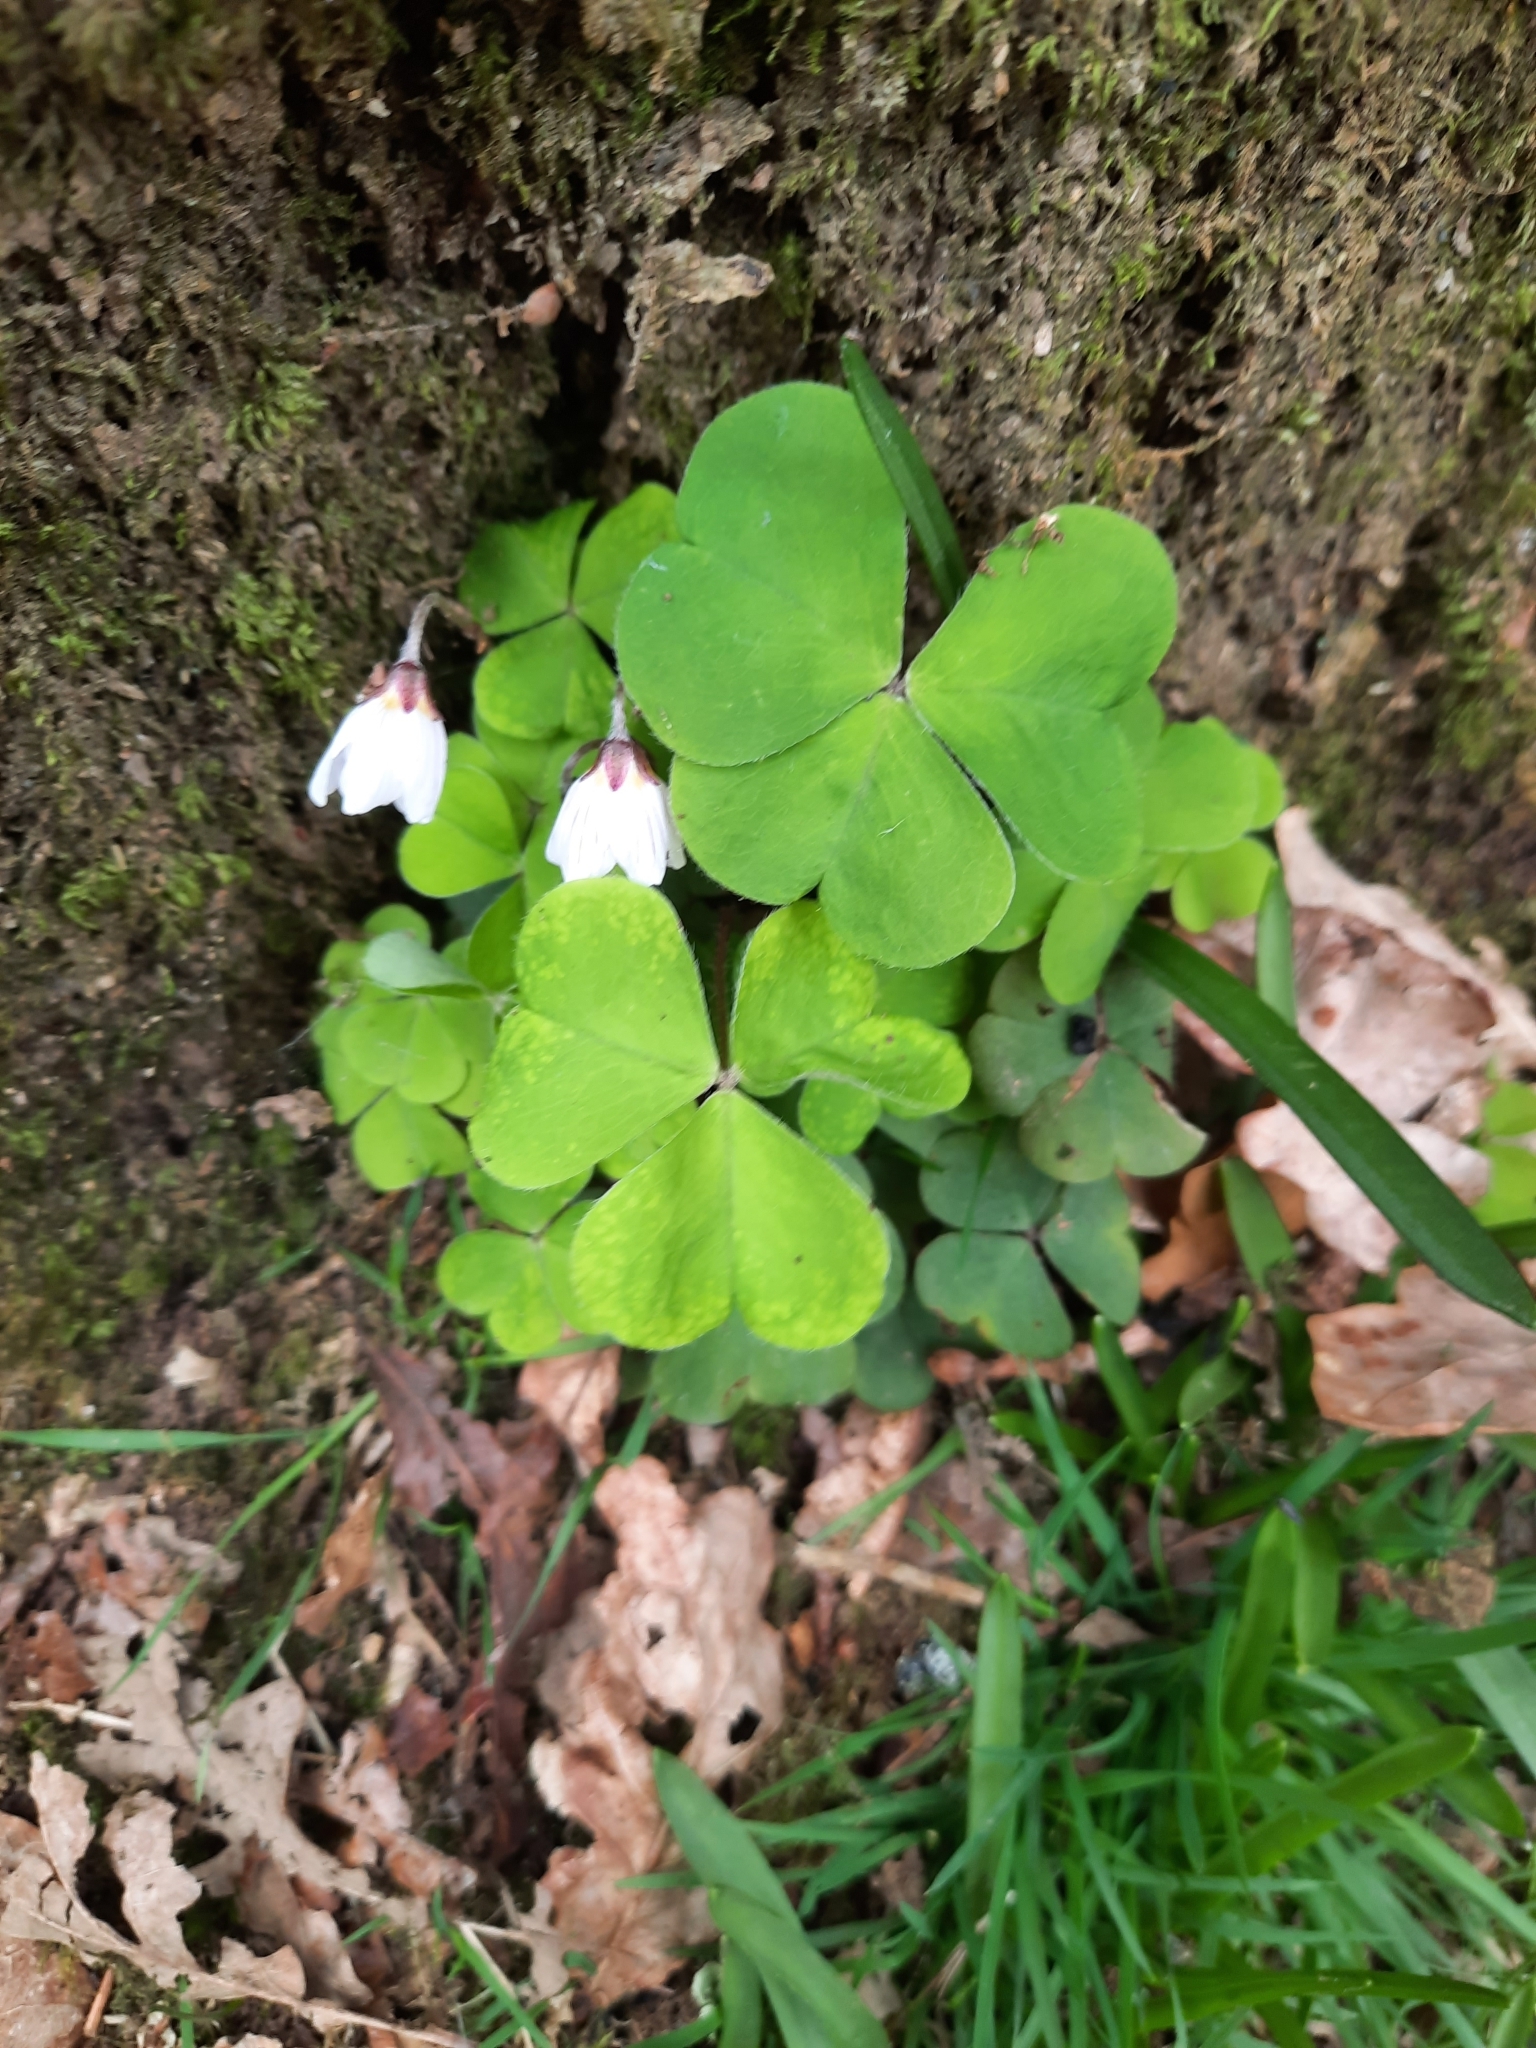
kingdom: Plantae
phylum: Tracheophyta
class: Magnoliopsida
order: Oxalidales
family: Oxalidaceae
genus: Oxalis
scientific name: Oxalis acetosella
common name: Wood-sorrel
